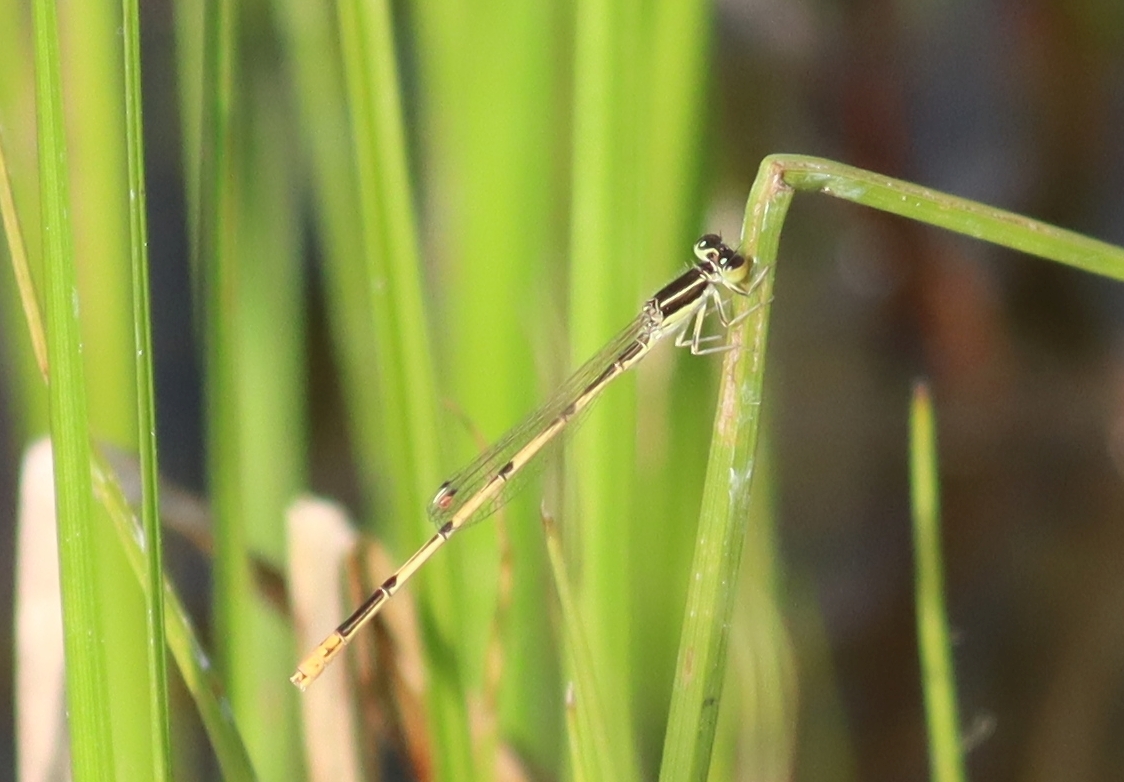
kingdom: Animalia
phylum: Arthropoda
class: Insecta
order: Odonata
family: Coenagrionidae
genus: Ischnura
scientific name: Ischnura hastata
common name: Citrine forktail
